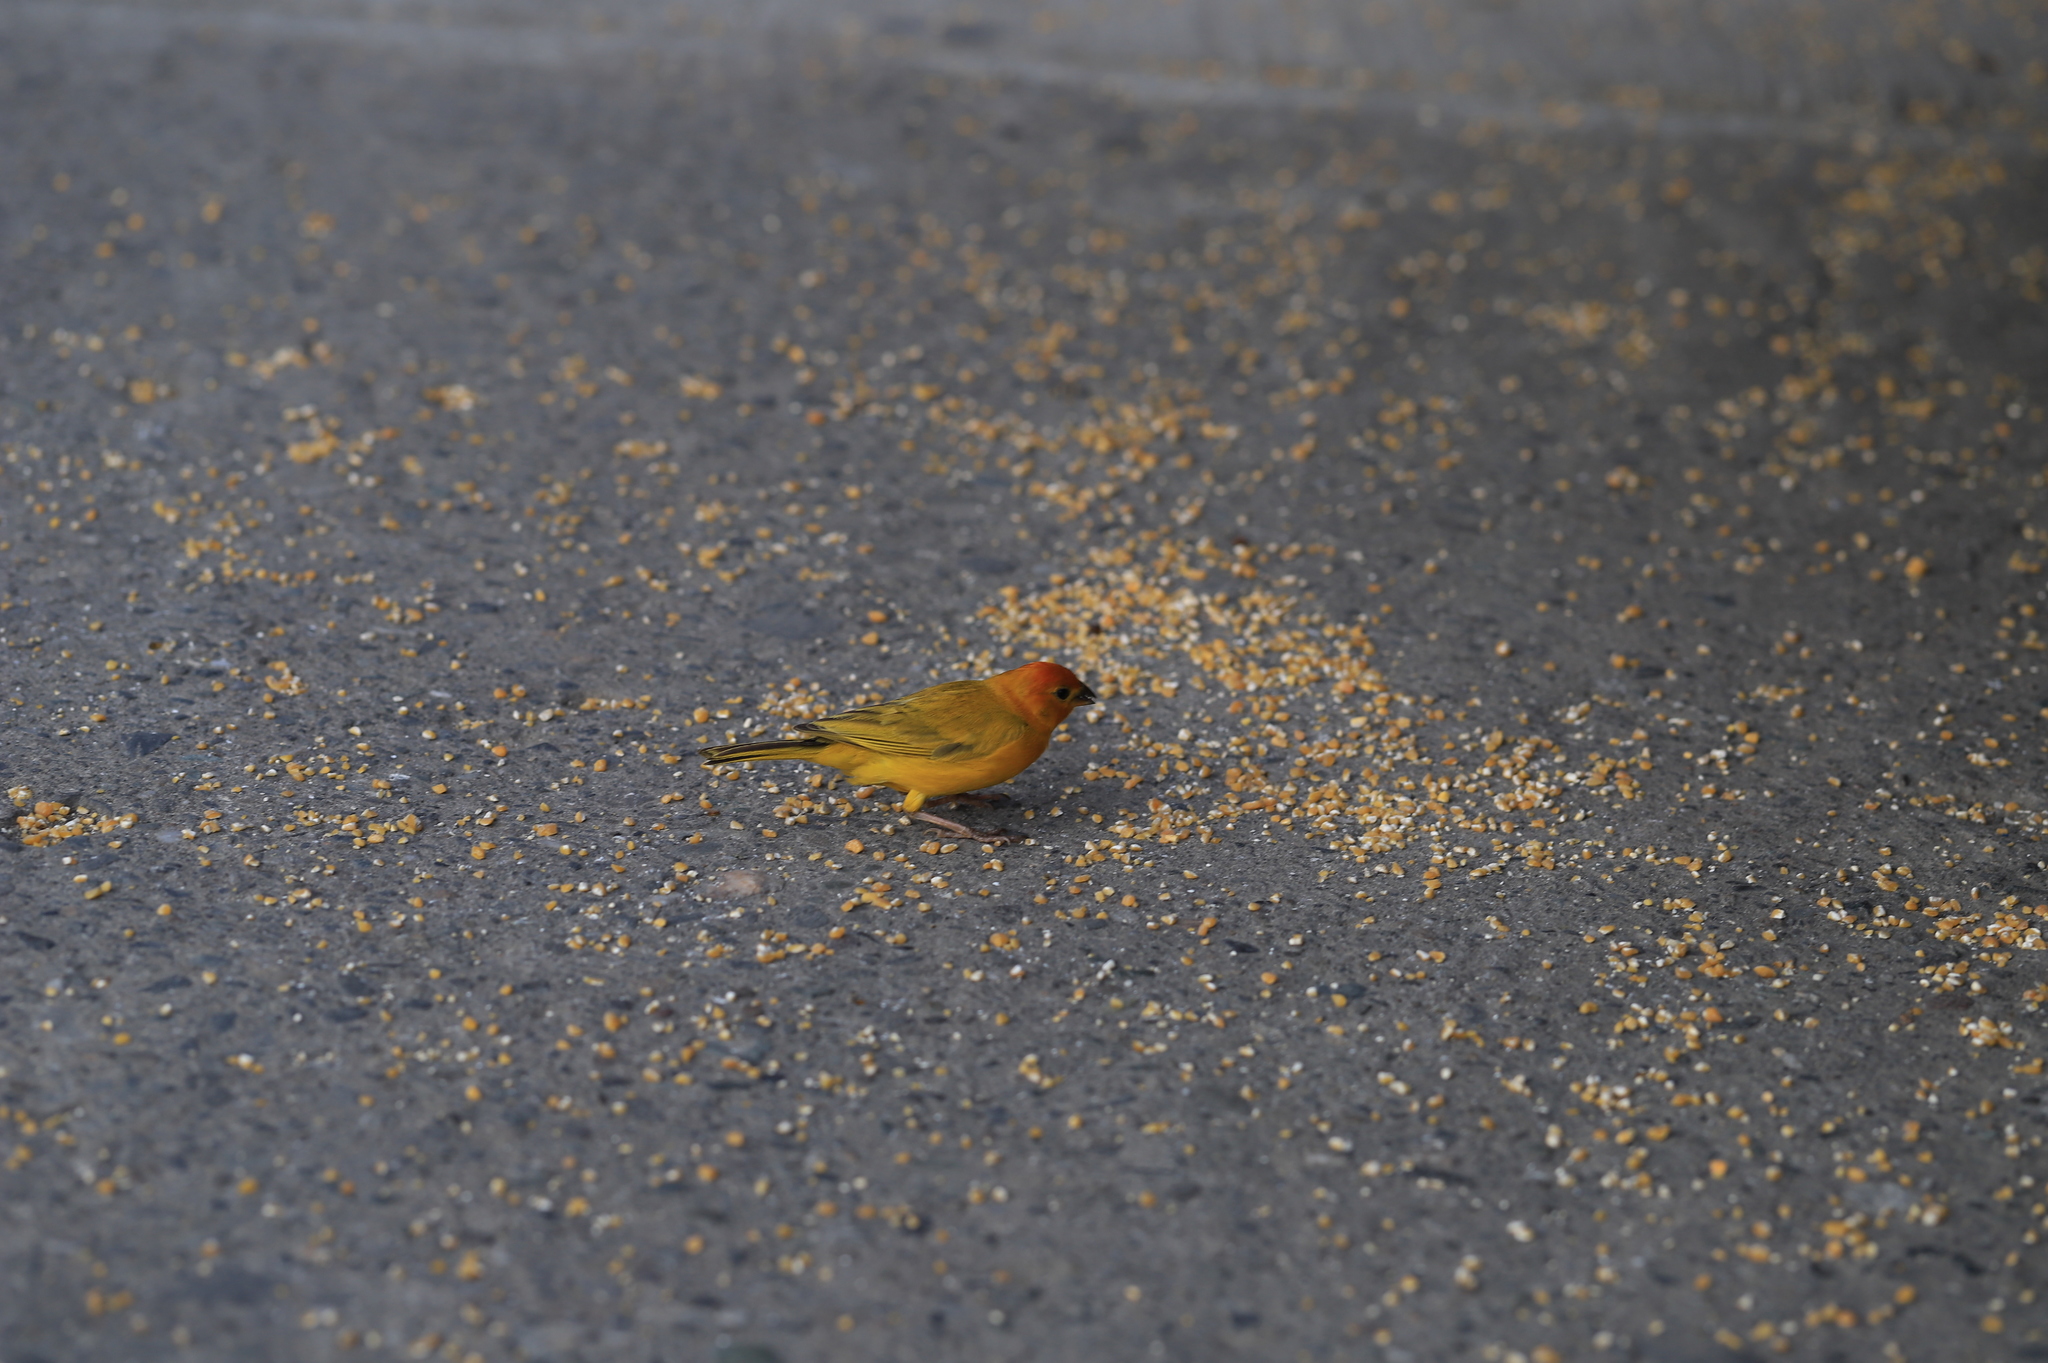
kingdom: Animalia
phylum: Chordata
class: Aves
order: Passeriformes
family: Thraupidae
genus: Sicalis
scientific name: Sicalis flaveola
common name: Saffron finch
